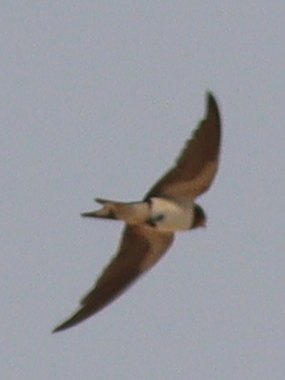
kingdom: Animalia
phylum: Chordata
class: Aves
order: Passeriformes
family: Hirundinidae
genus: Hirundo
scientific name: Hirundo rustica
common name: Barn swallow
